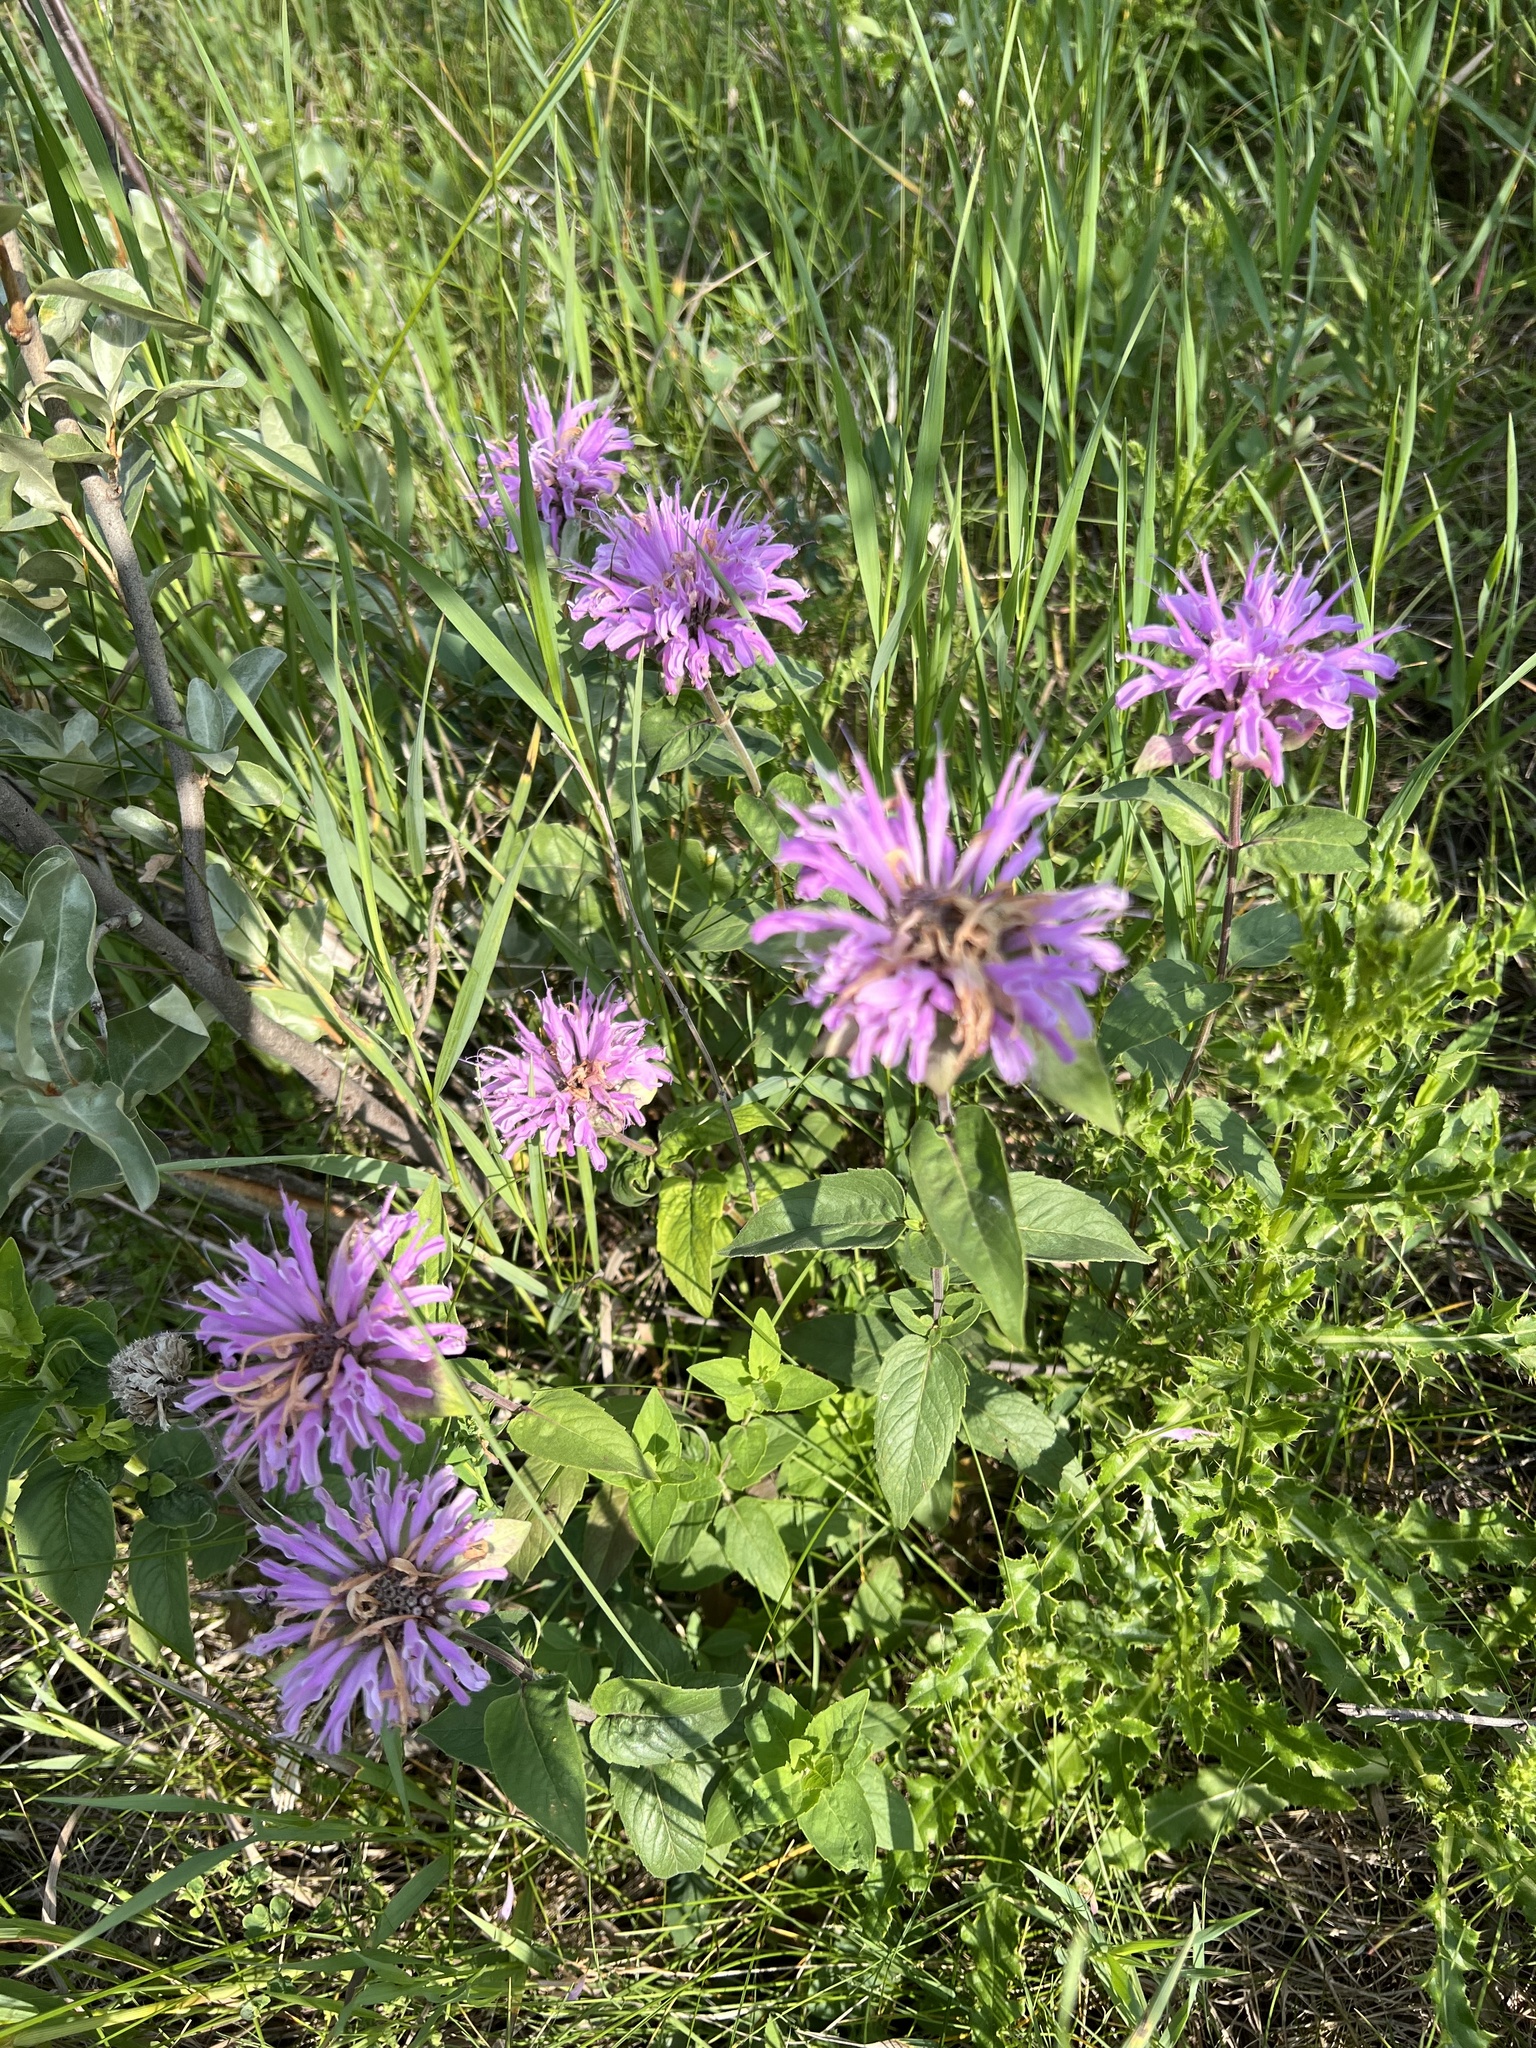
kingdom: Plantae
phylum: Tracheophyta
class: Magnoliopsida
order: Lamiales
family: Lamiaceae
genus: Monarda
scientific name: Monarda fistulosa
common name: Purple beebalm
